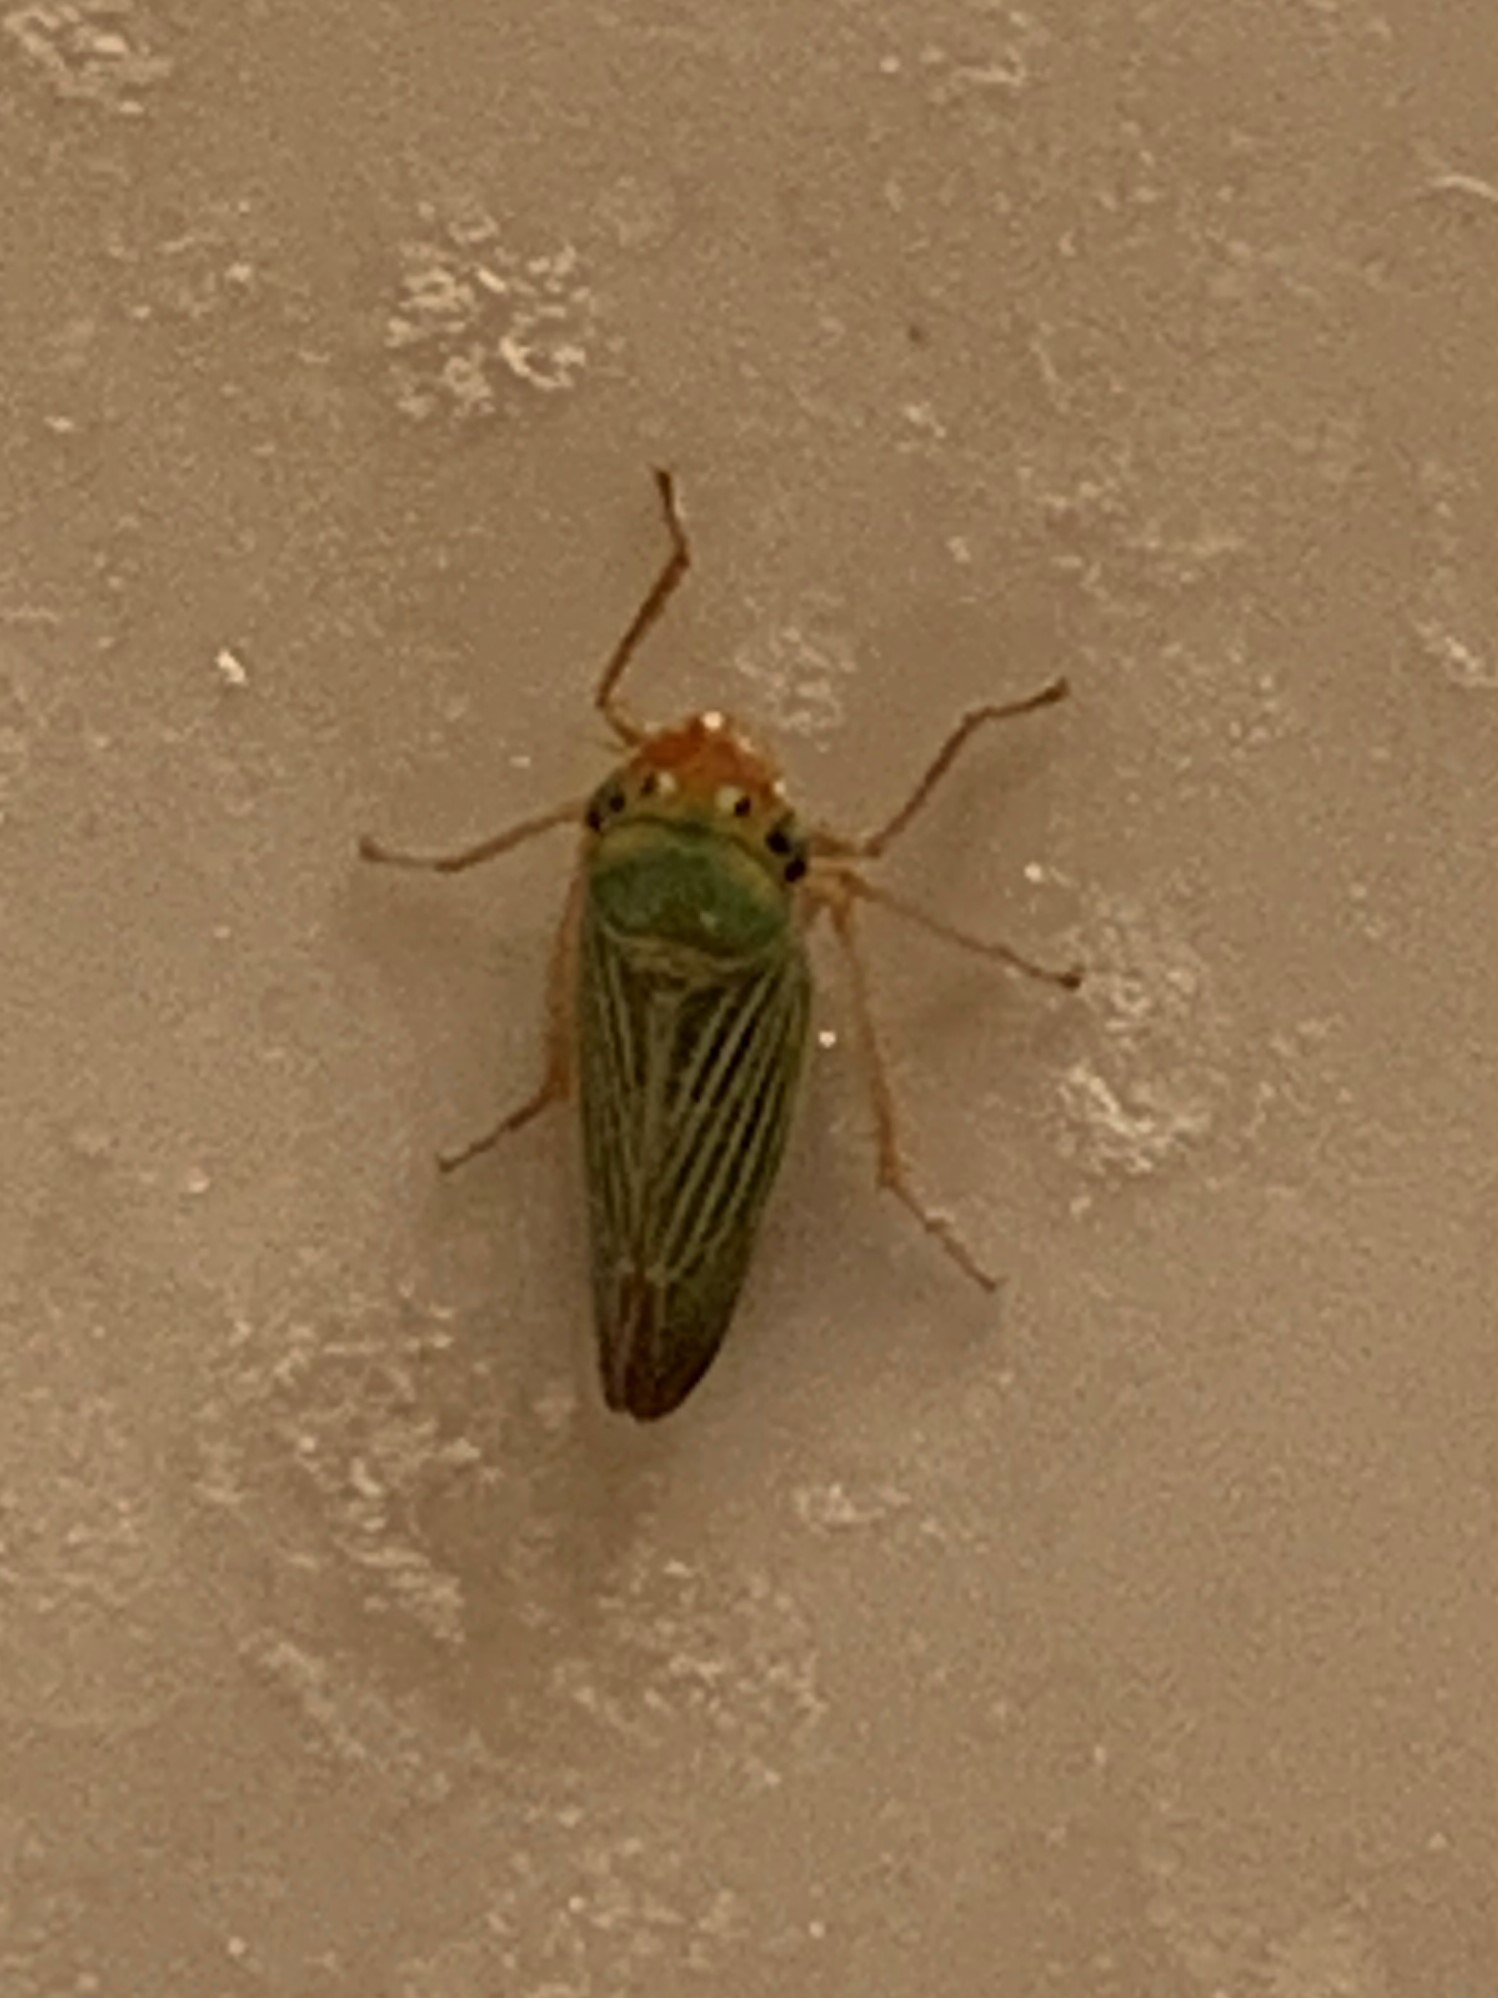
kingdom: Animalia
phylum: Arthropoda
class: Insecta
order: Hemiptera
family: Cicadellidae
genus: Xyphon
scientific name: Xyphon flaviceps
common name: Yellowheaded leafhopper
